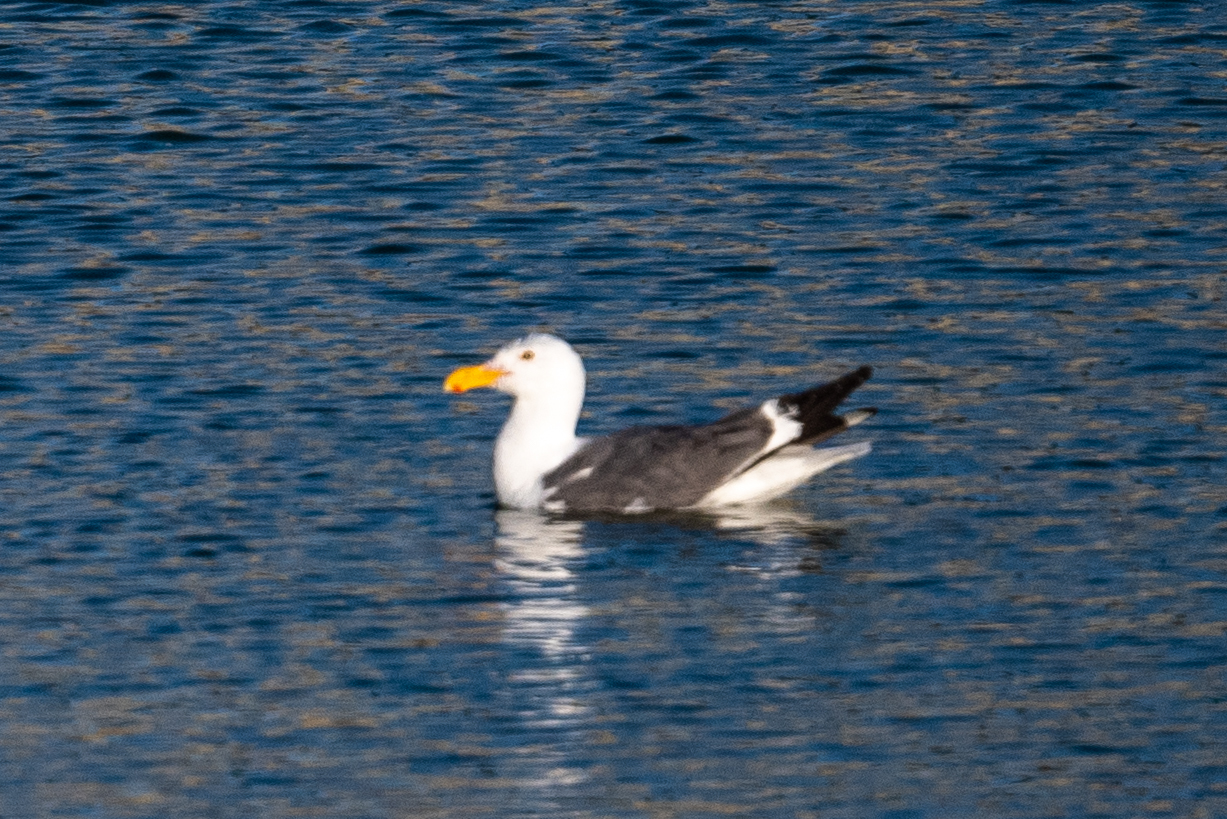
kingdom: Animalia
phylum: Chordata
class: Aves
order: Charadriiformes
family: Laridae
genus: Larus
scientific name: Larus occidentalis
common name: Western gull
